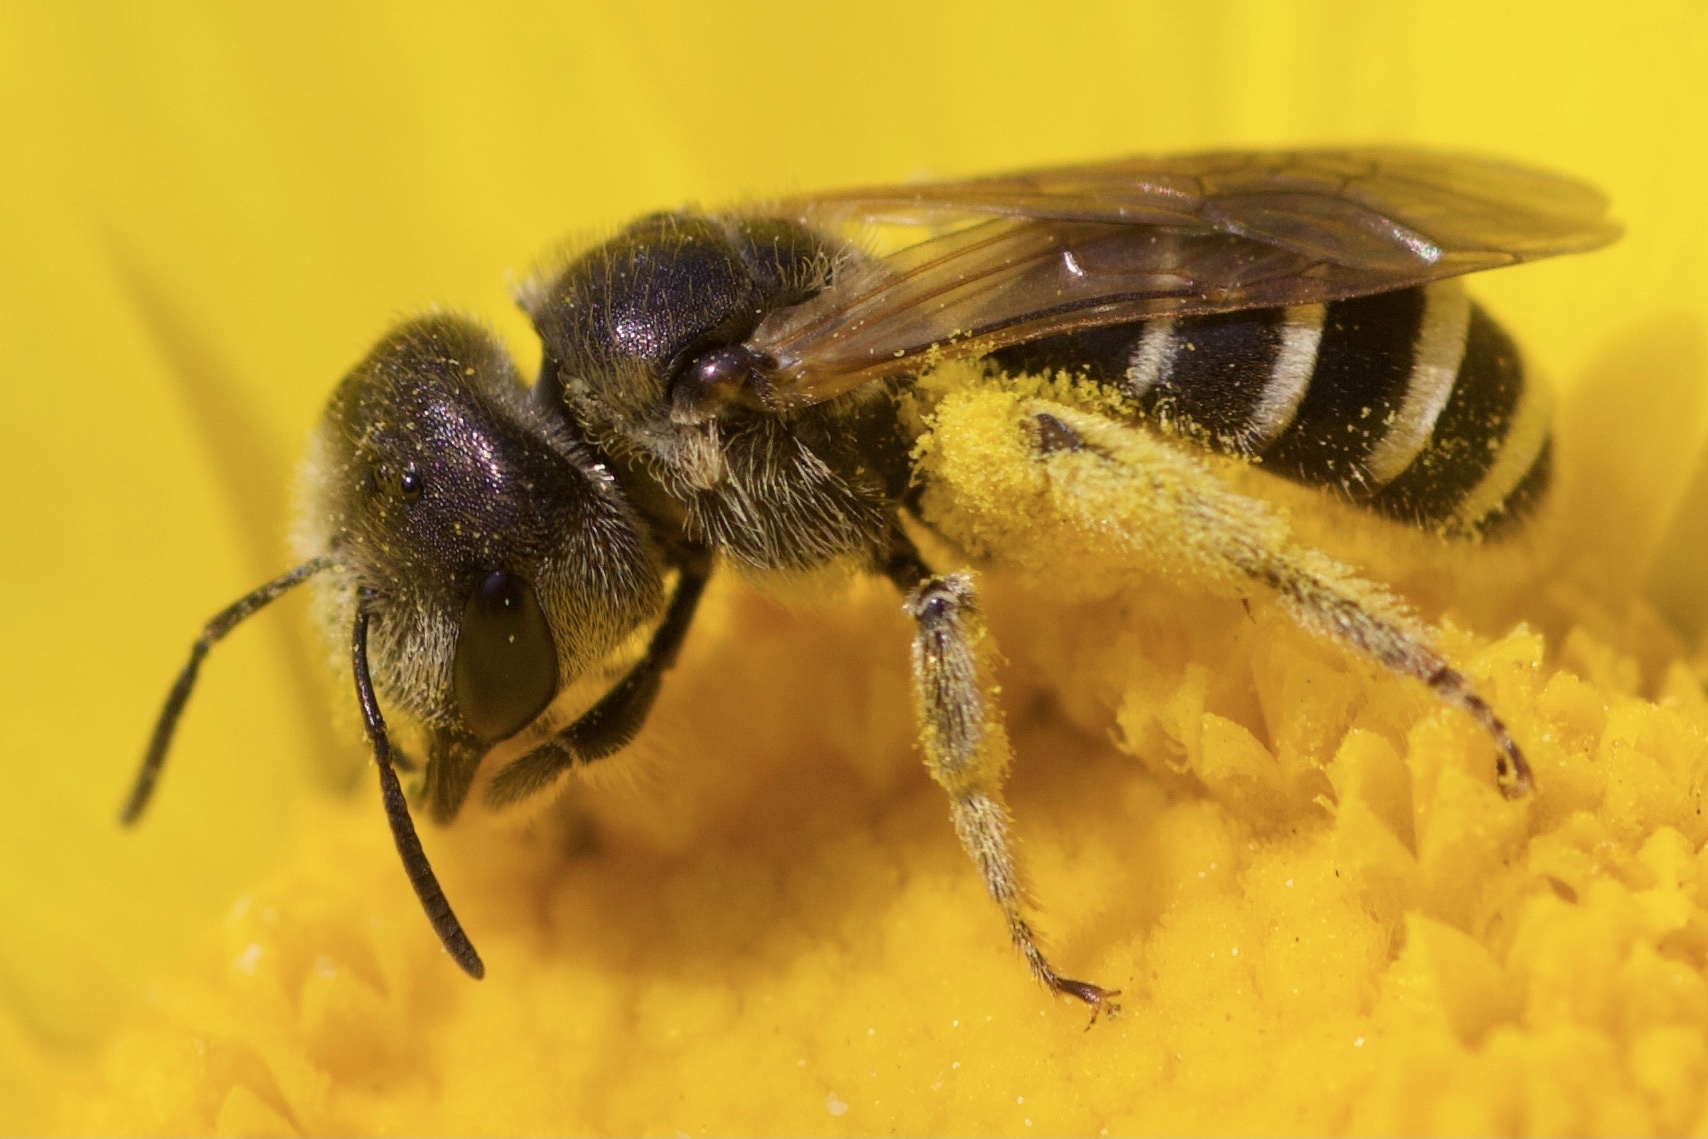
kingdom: Animalia
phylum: Arthropoda
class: Insecta
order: Hymenoptera
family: Halictidae
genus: Halictus
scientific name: Halictus ligatus
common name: Ligated furrow bee
